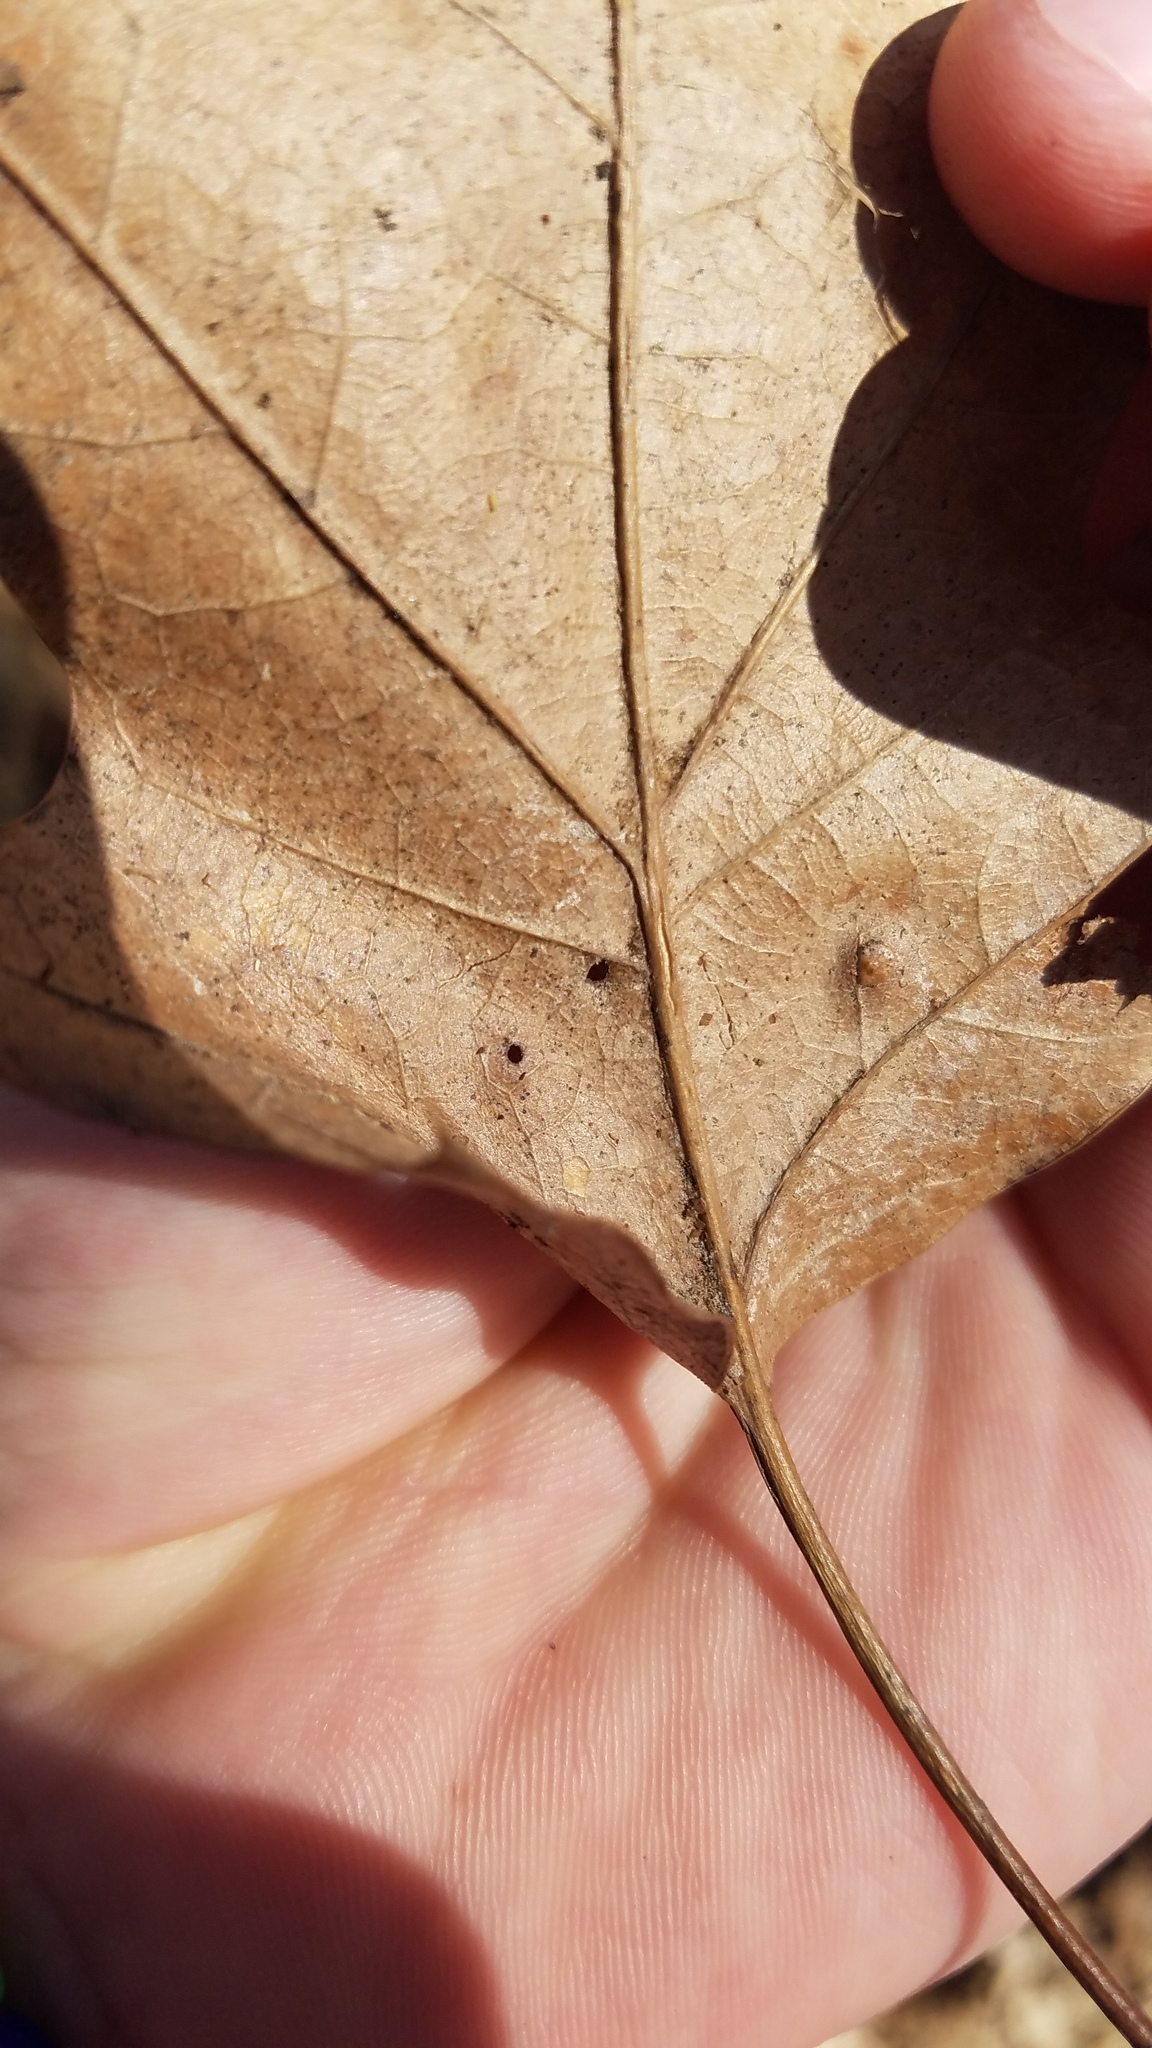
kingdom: Animalia
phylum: Arthropoda
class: Insecta
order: Diptera
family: Cecidomyiidae
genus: Polystepha
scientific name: Polystepha pilulae
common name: Oak leaf gall midge
